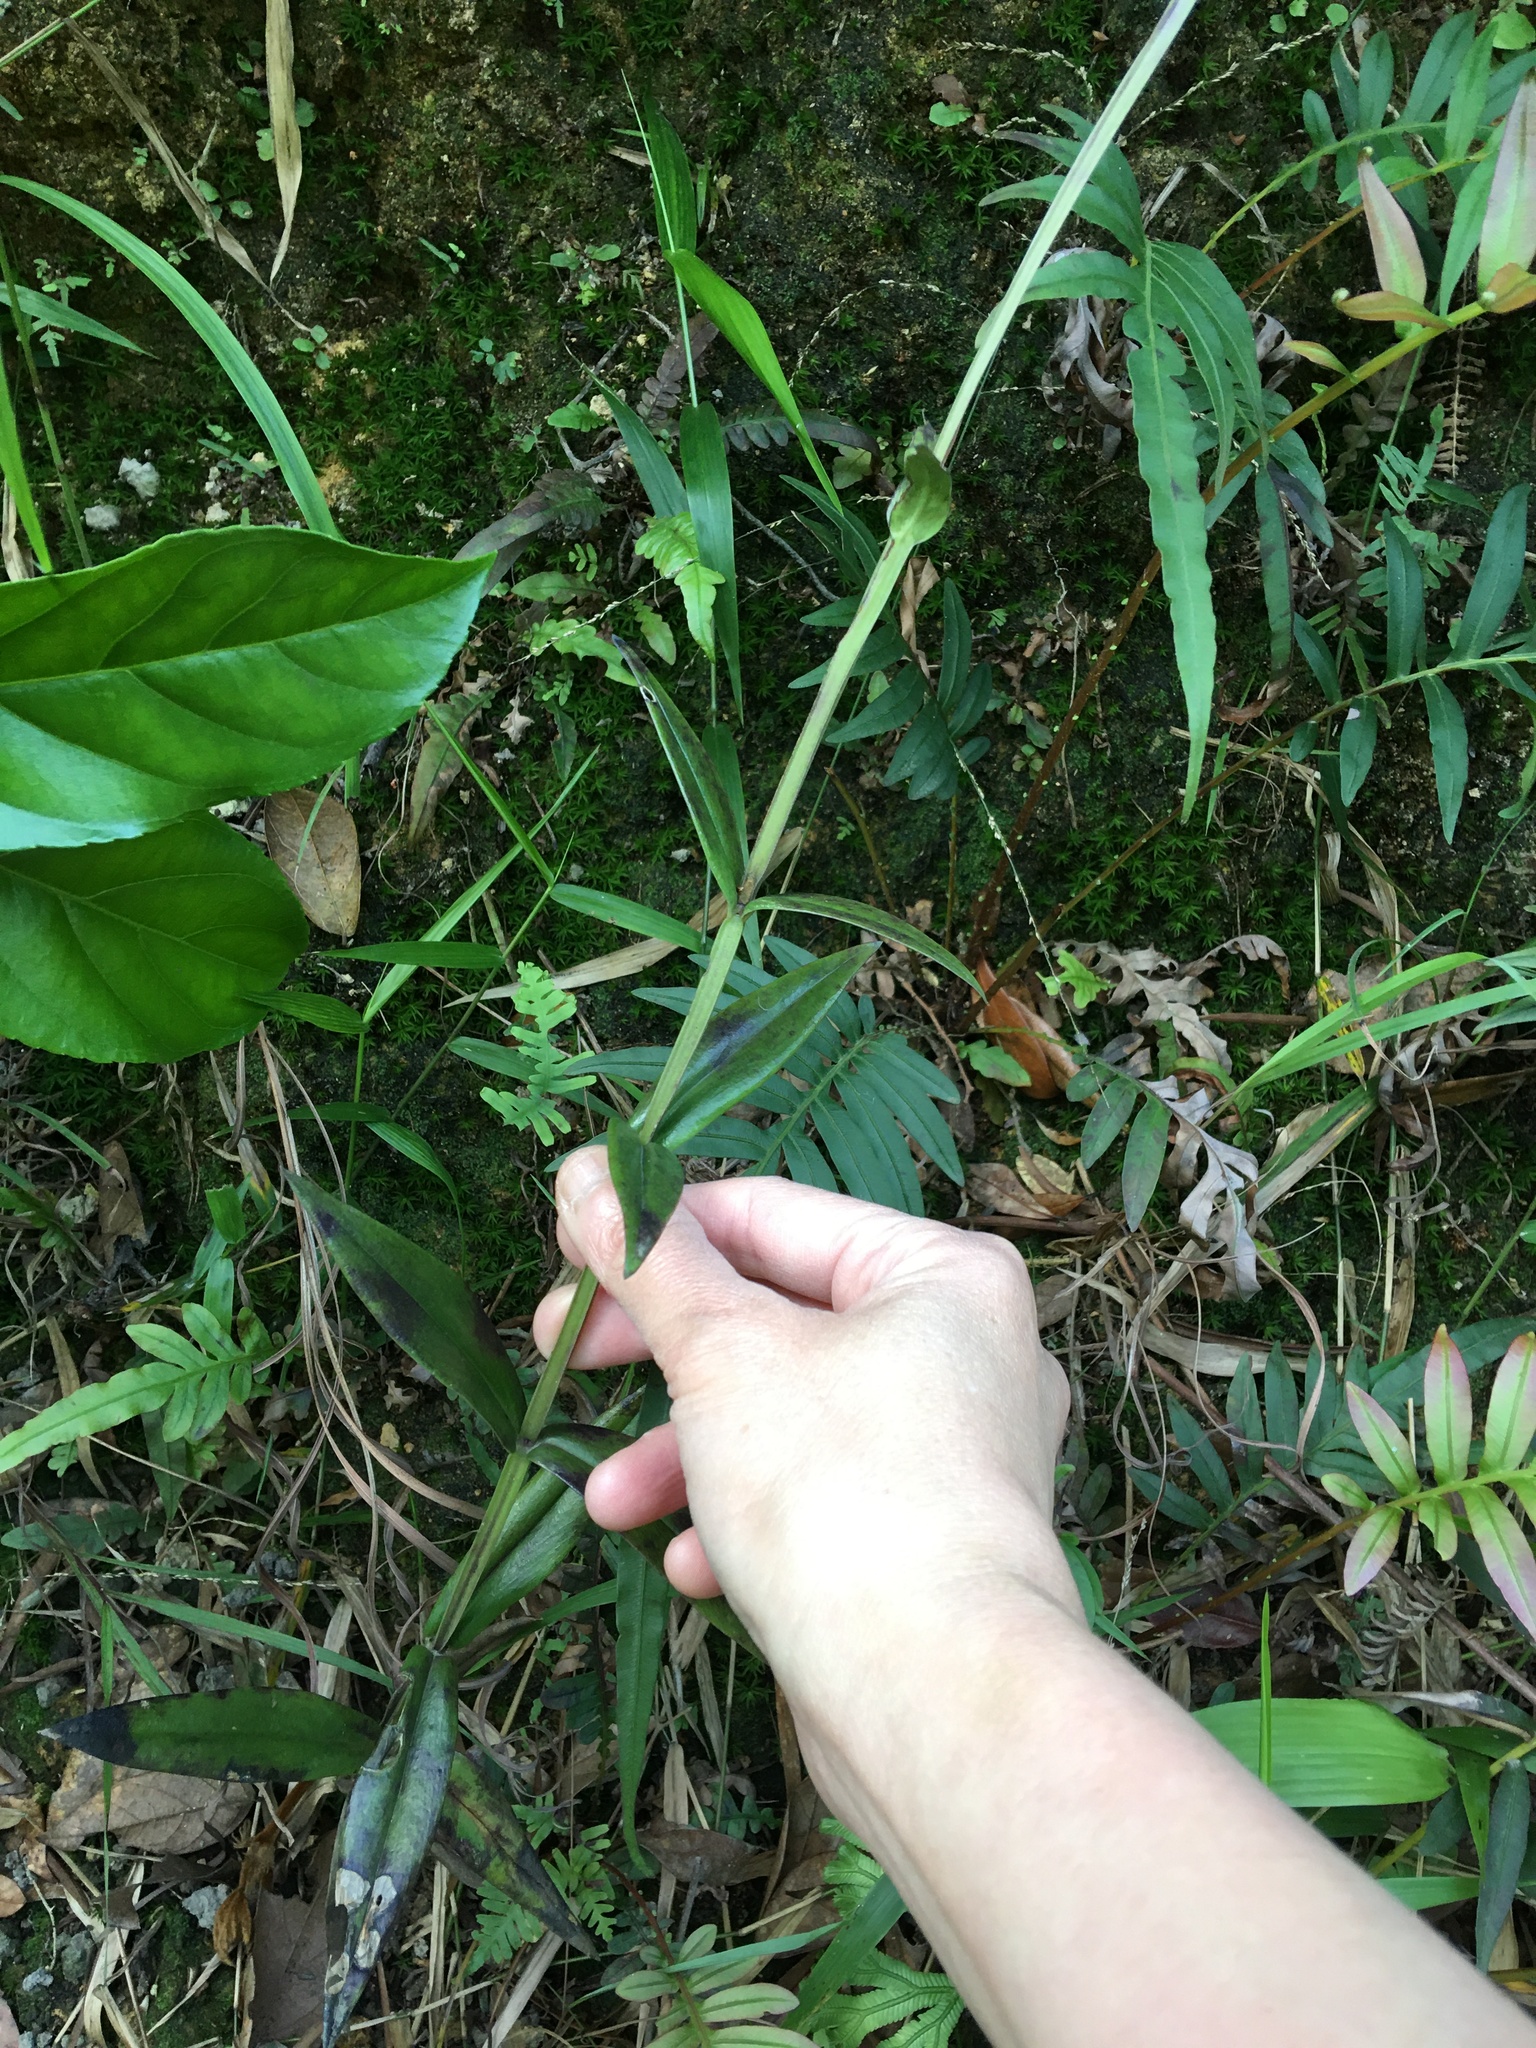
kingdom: Plantae
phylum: Tracheophyta
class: Magnoliopsida
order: Gentianales
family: Rubiaceae
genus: Hedyotis
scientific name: Hedyotis lancea
